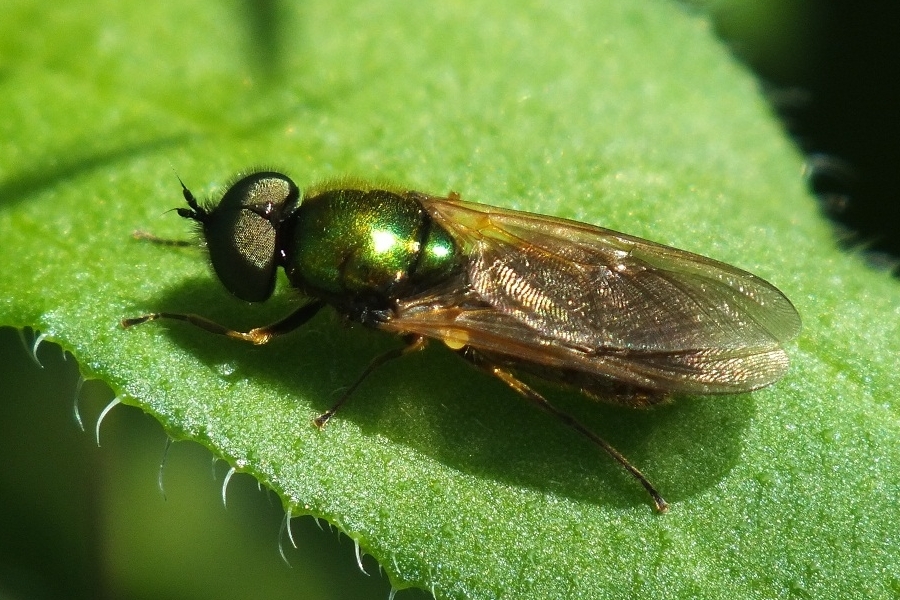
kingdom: Animalia
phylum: Arthropoda
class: Insecta
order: Diptera
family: Stratiomyidae
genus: Chloromyia
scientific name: Chloromyia formosa
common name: Soldier fly
